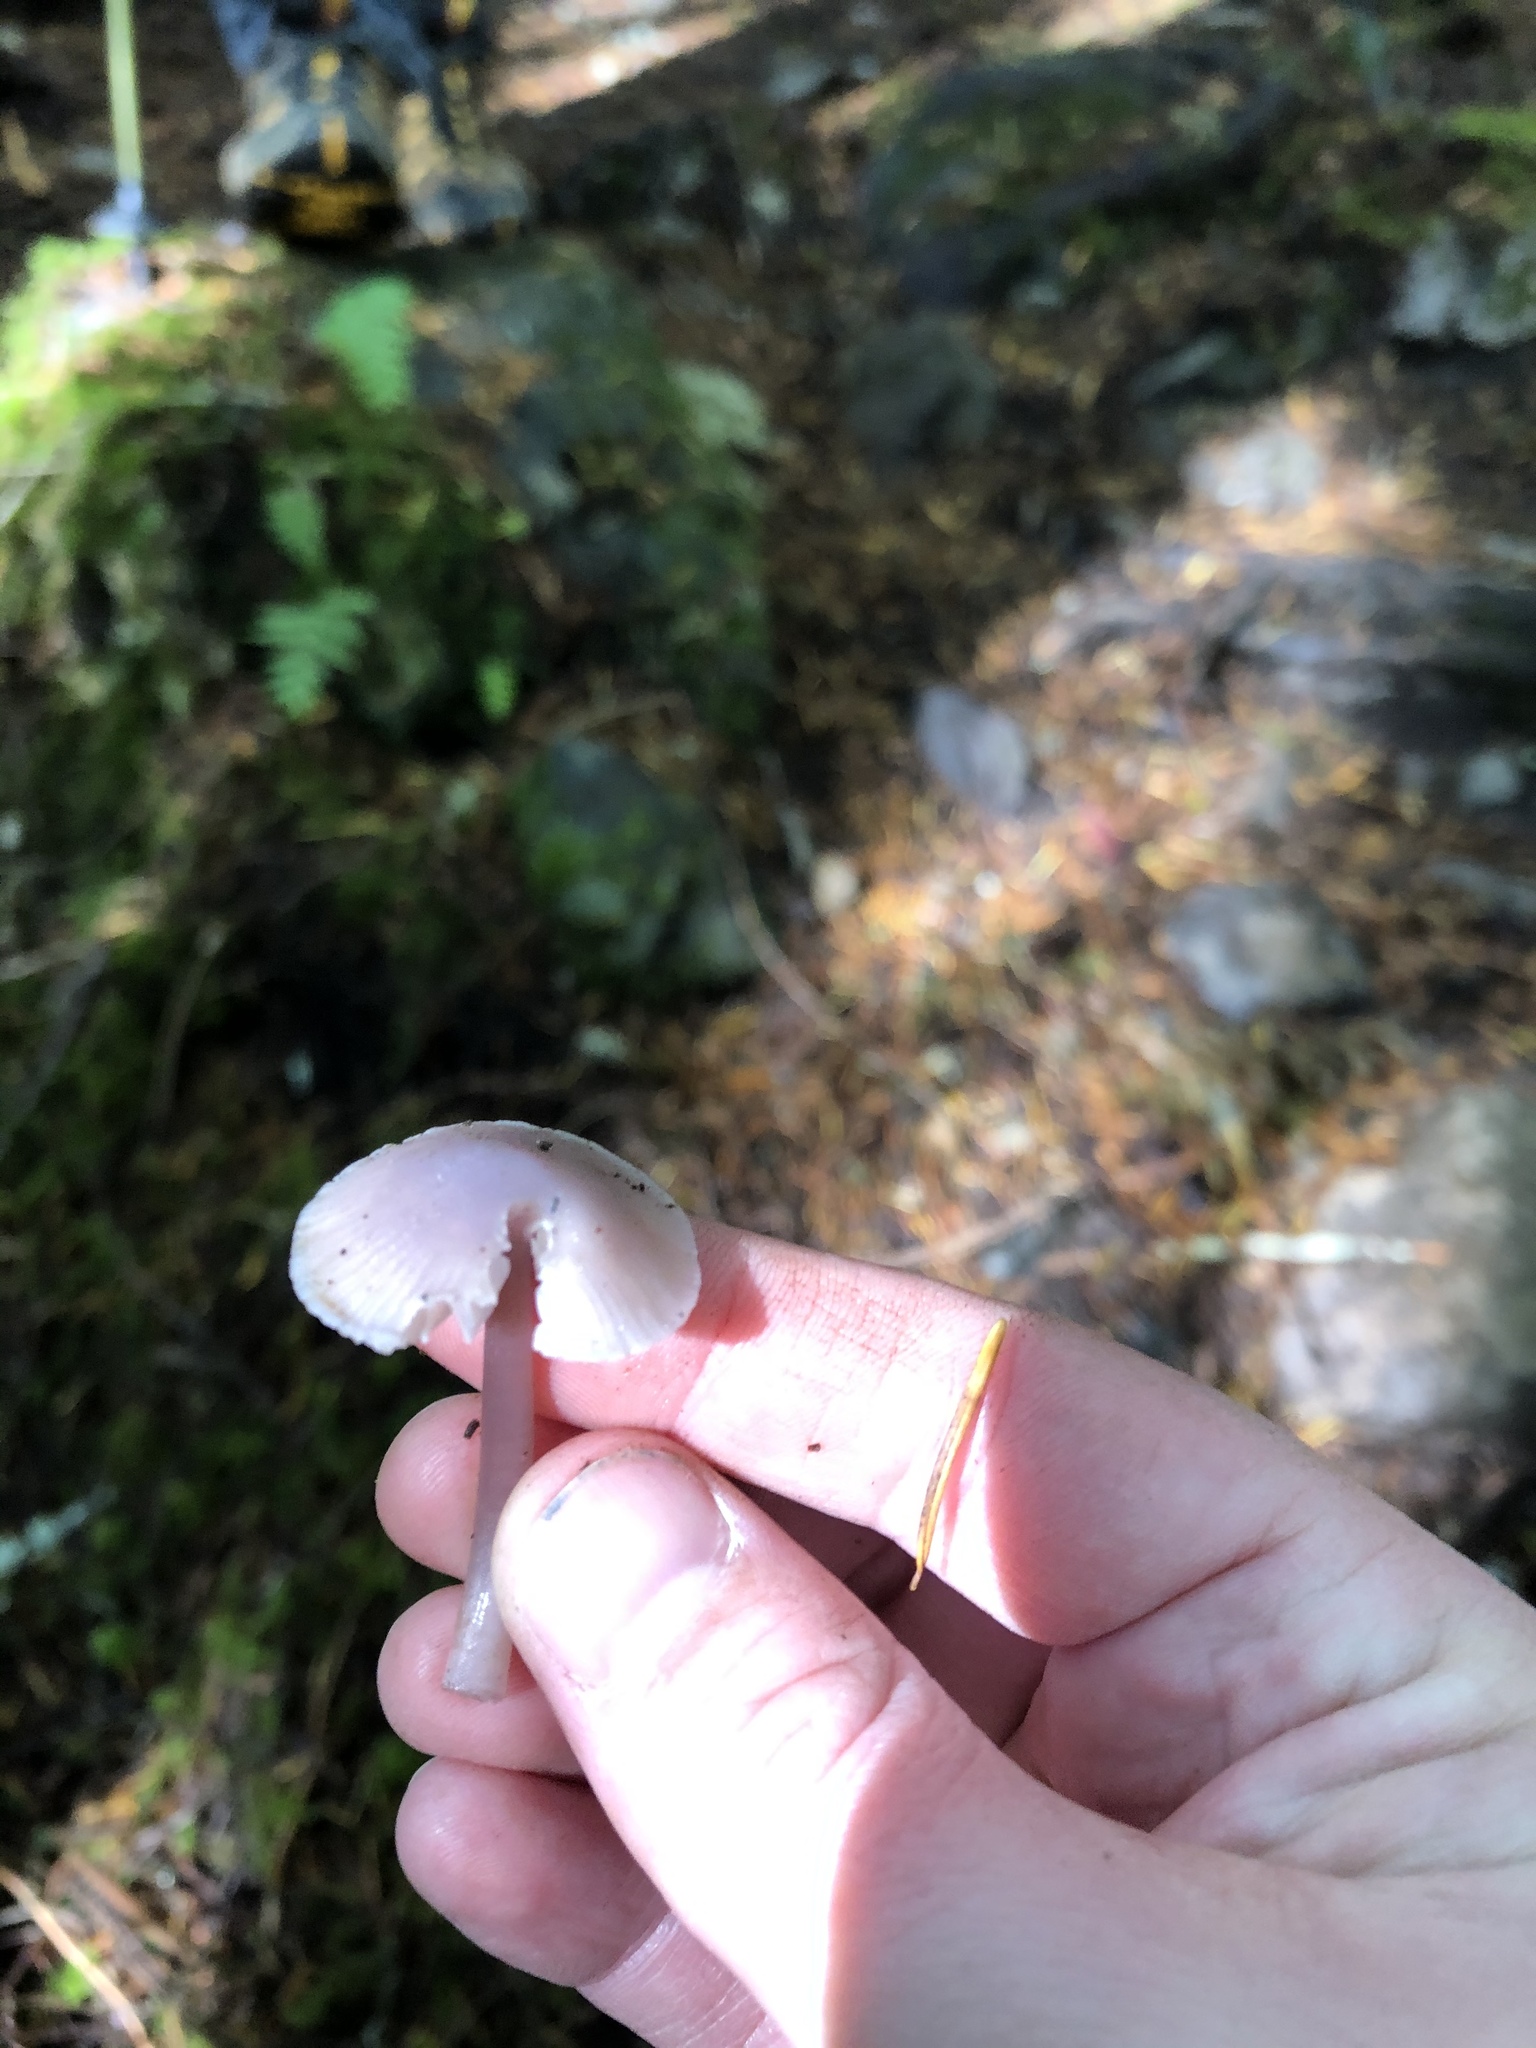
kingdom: Fungi
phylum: Basidiomycota
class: Agaricomycetes
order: Agaricales
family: Mycenaceae
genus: Mycena
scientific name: Mycena pura
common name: Lilac bonnet
